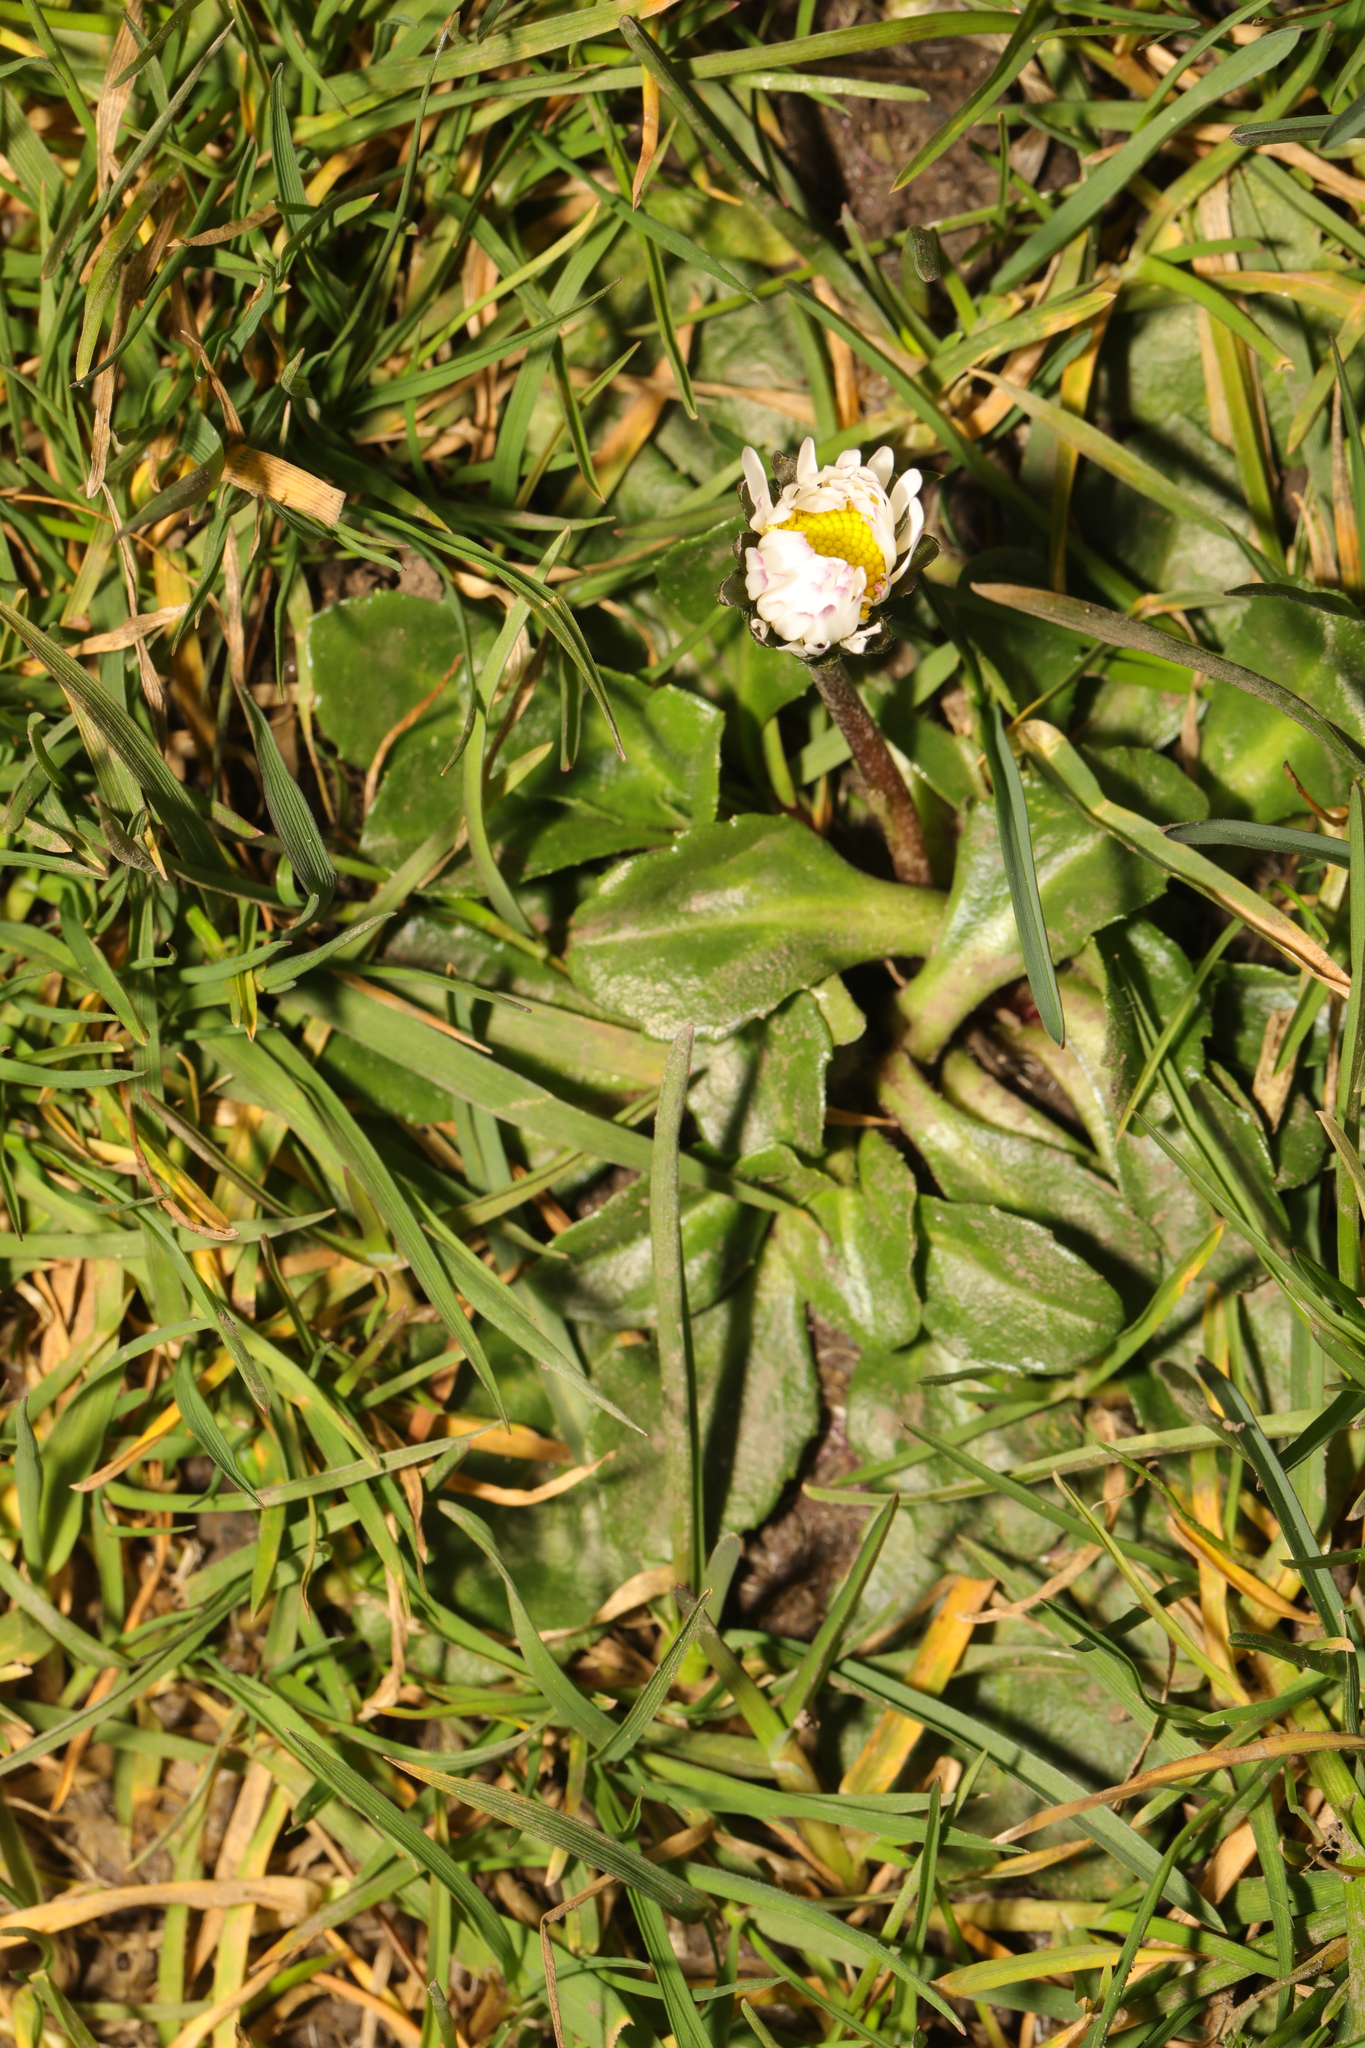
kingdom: Plantae
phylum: Tracheophyta
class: Magnoliopsida
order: Asterales
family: Asteraceae
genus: Bellis
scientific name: Bellis perennis
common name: Lawndaisy
